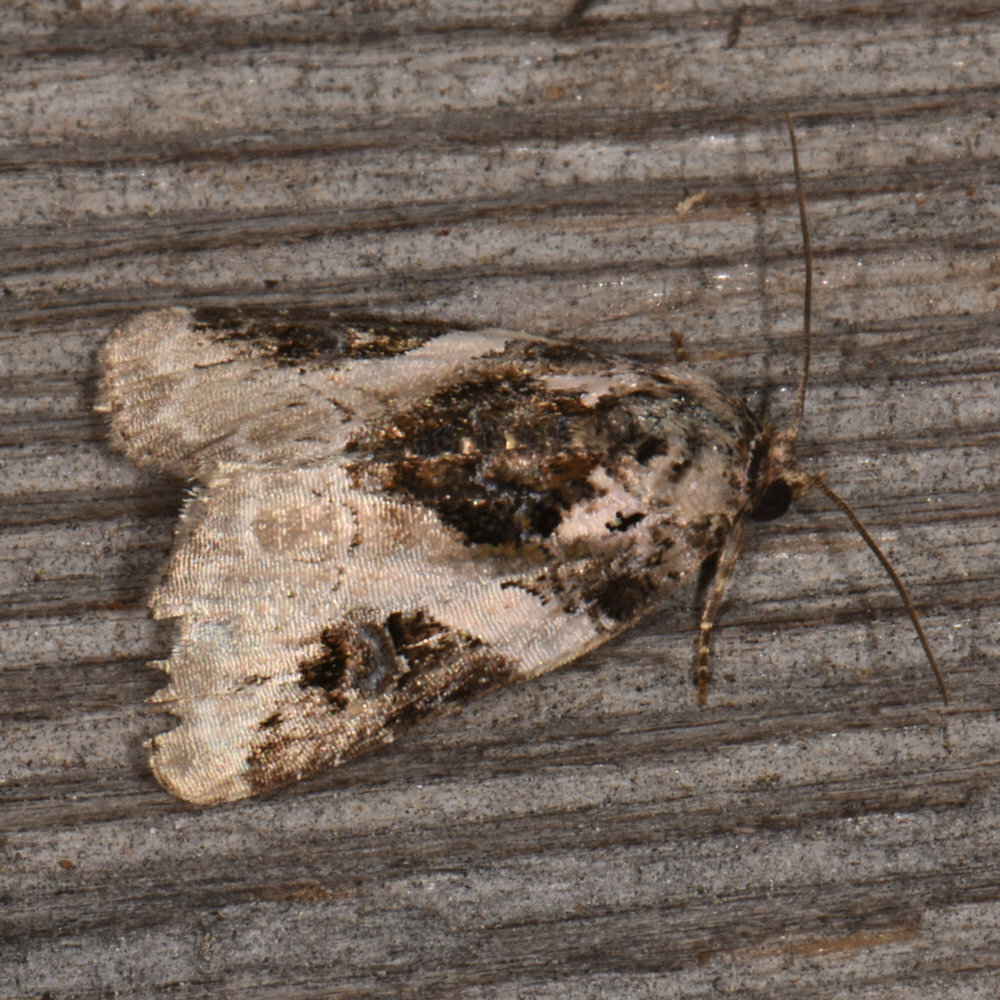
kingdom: Animalia
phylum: Arthropoda
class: Insecta
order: Lepidoptera
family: Noctuidae
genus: Pseudeustrotia
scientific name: Pseudeustrotia carneola
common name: Pink-barred lithacodia moth
